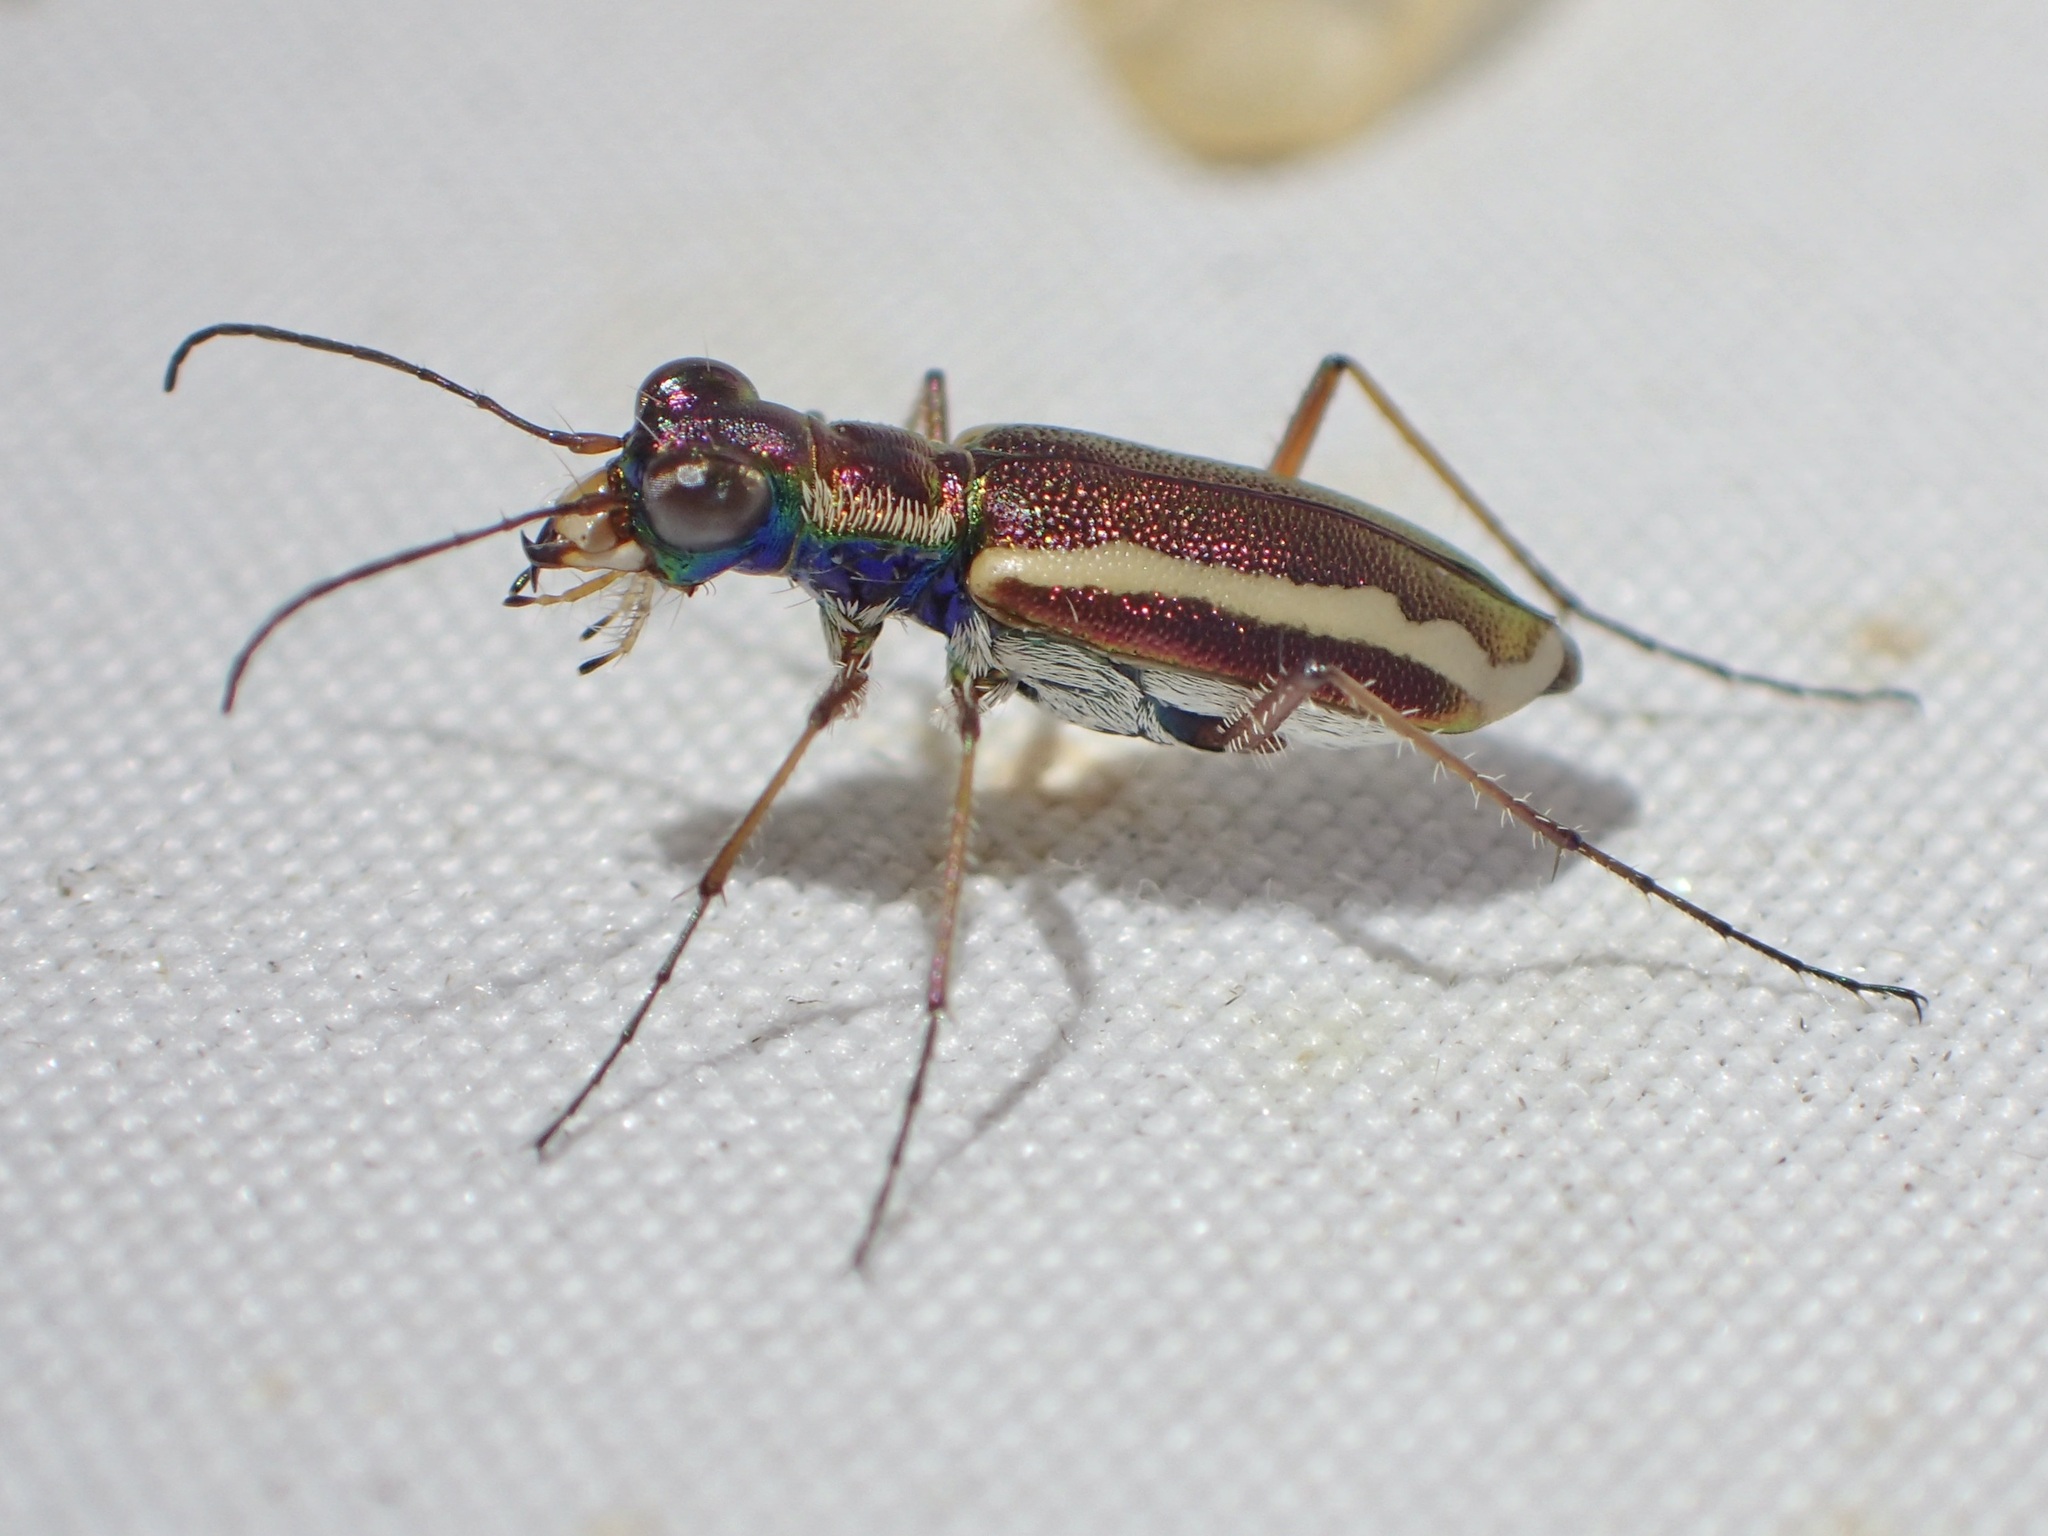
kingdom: Animalia
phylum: Arthropoda
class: Insecta
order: Coleoptera
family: Carabidae
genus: Cylindera
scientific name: Cylindera lemniscata
